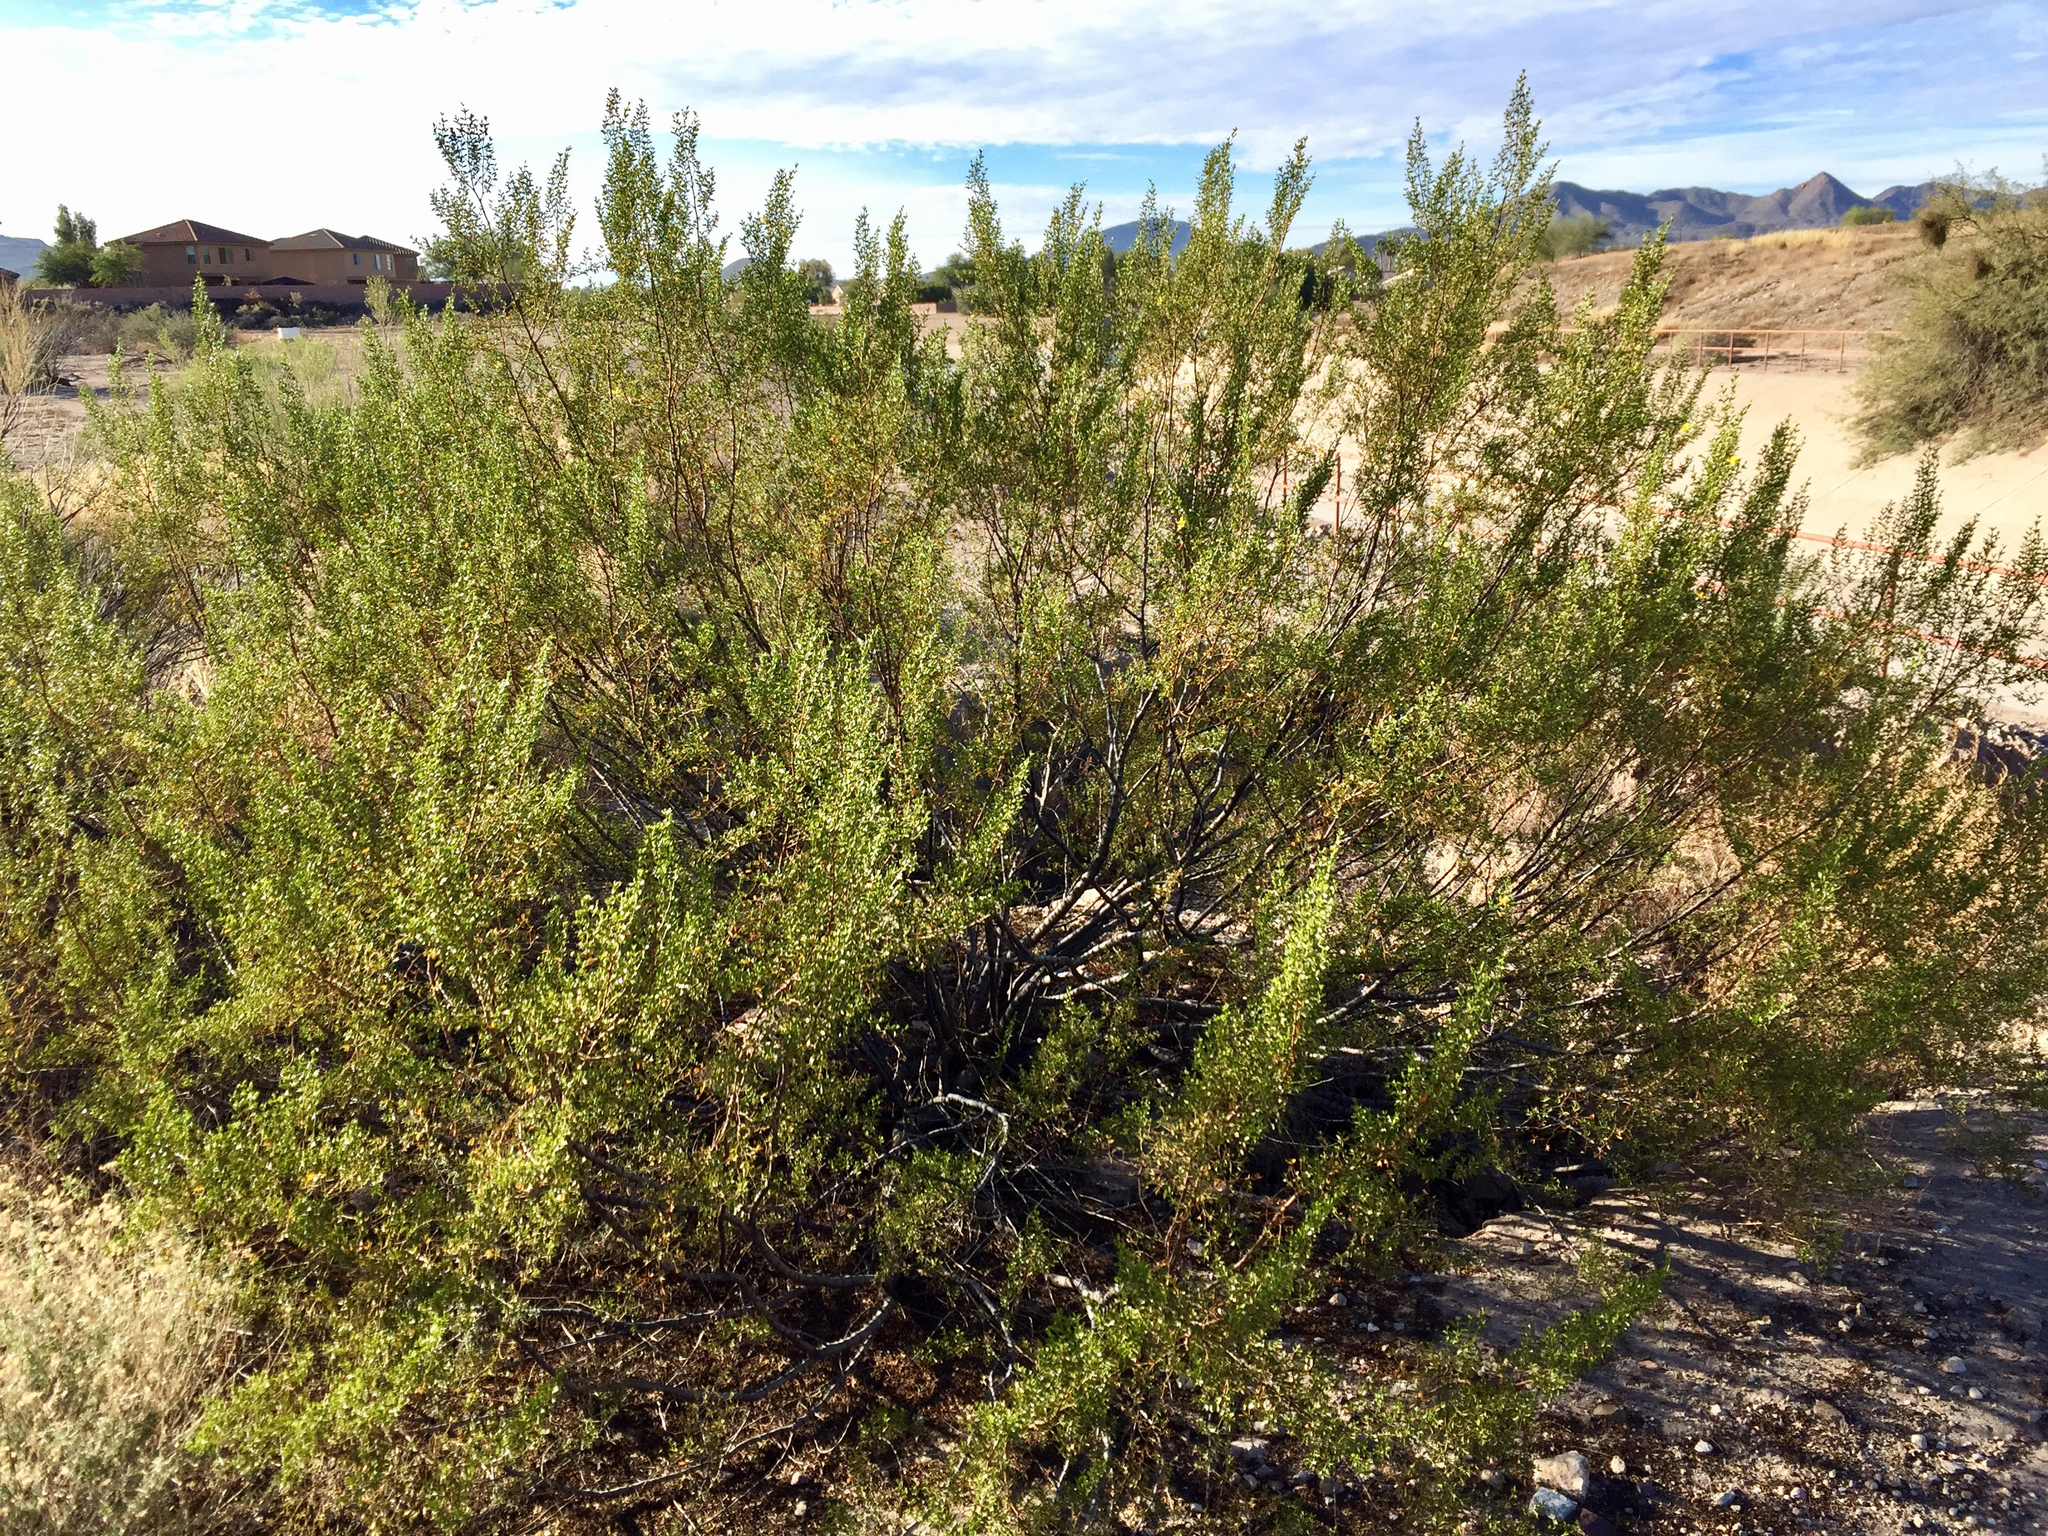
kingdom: Plantae
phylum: Tracheophyta
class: Magnoliopsida
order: Zygophyllales
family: Zygophyllaceae
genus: Larrea
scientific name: Larrea tridentata
